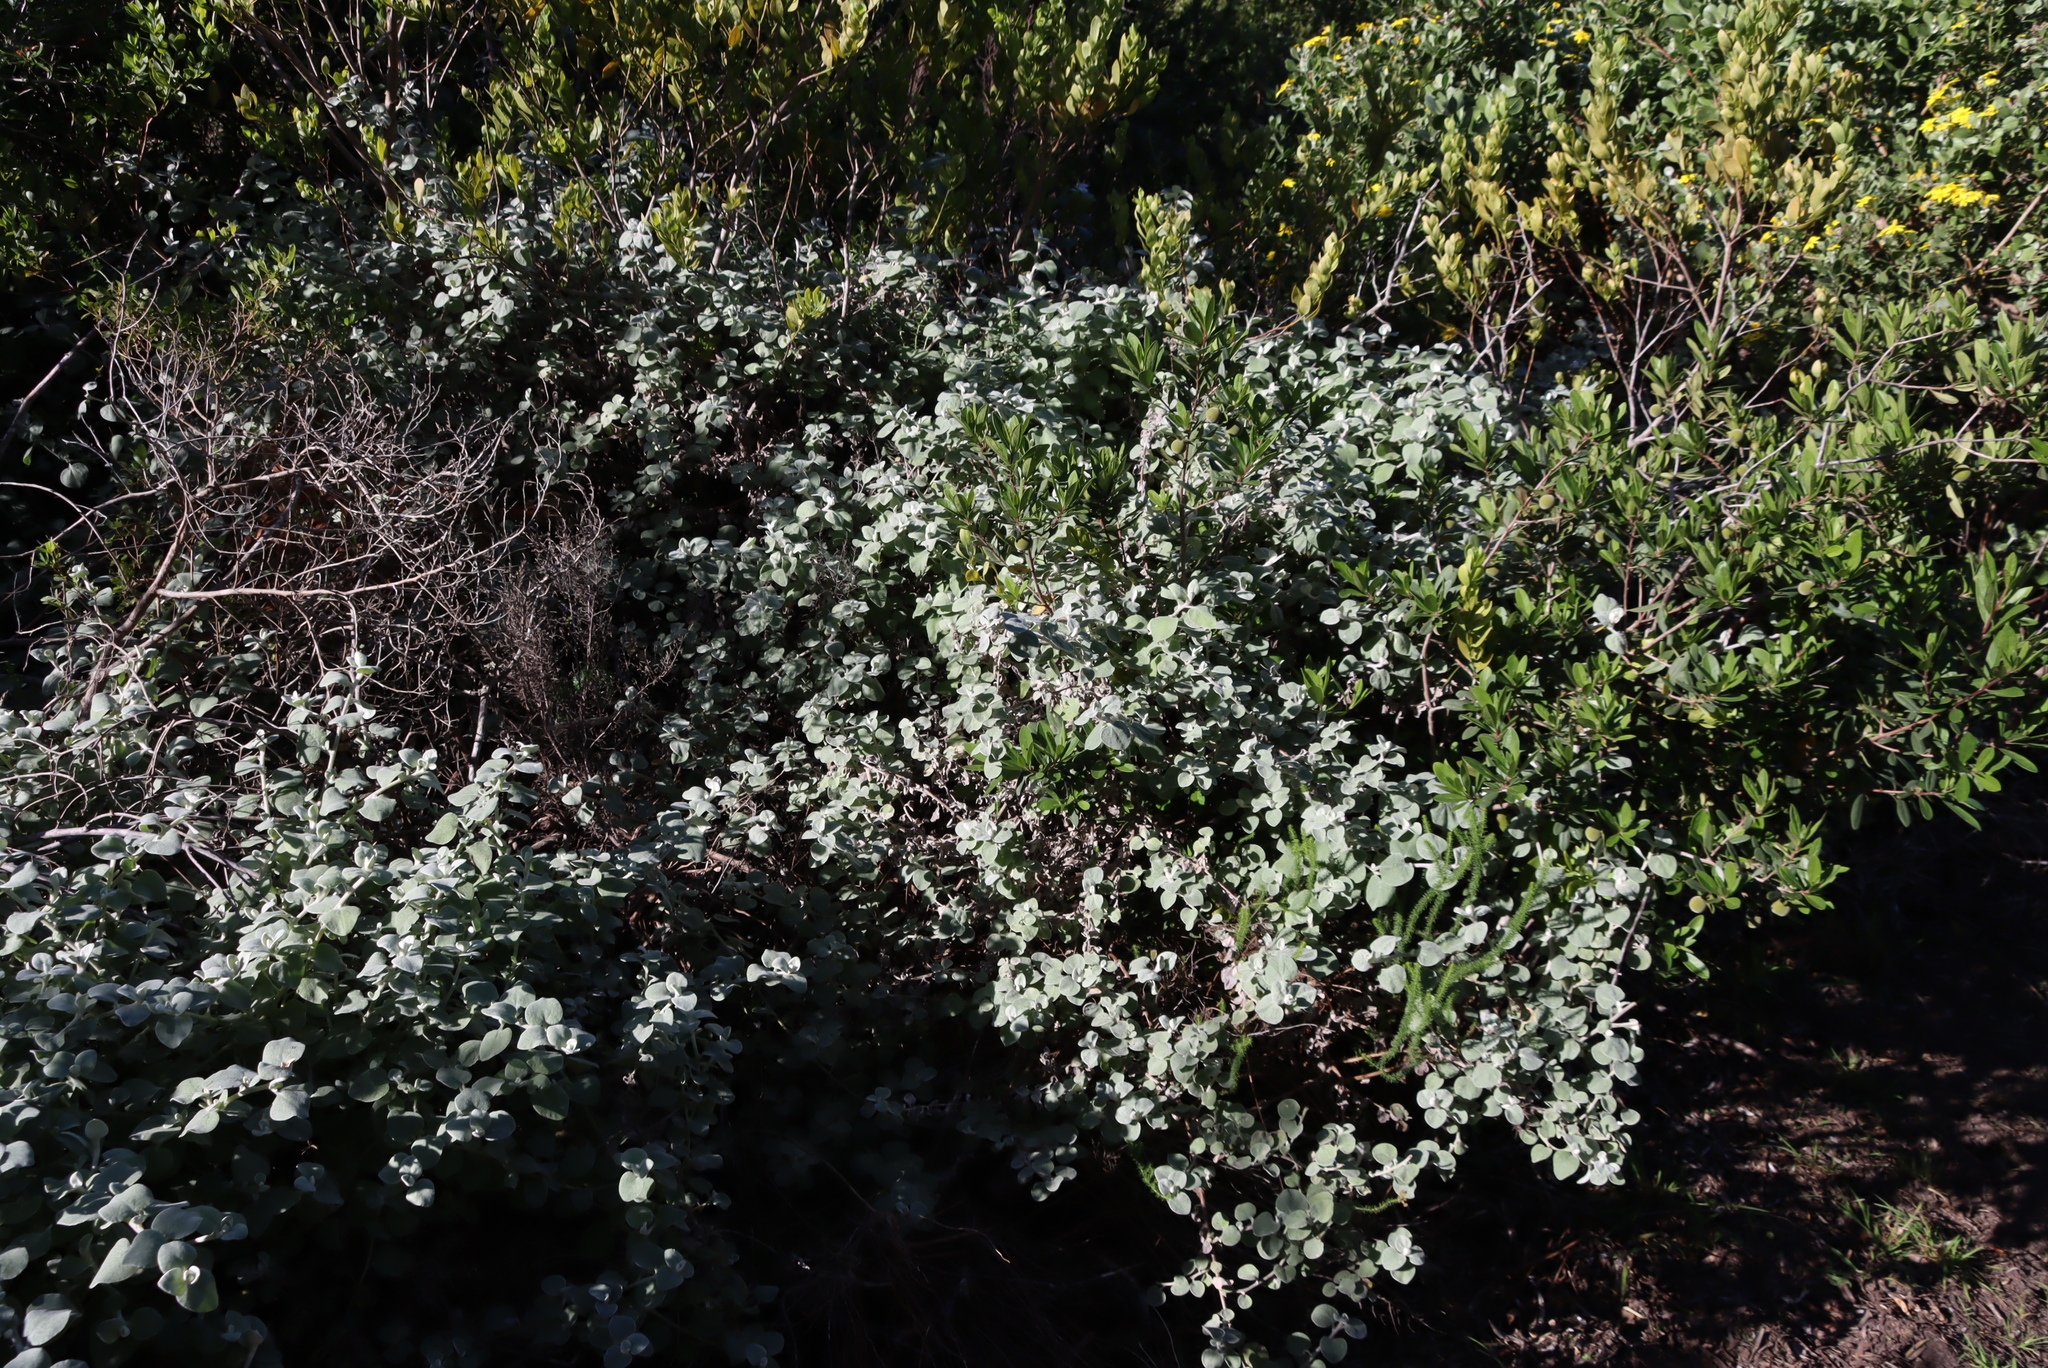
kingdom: Plantae
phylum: Tracheophyta
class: Magnoliopsida
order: Asterales
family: Asteraceae
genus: Helichrysum
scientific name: Helichrysum petiolare
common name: Licorice-plant
